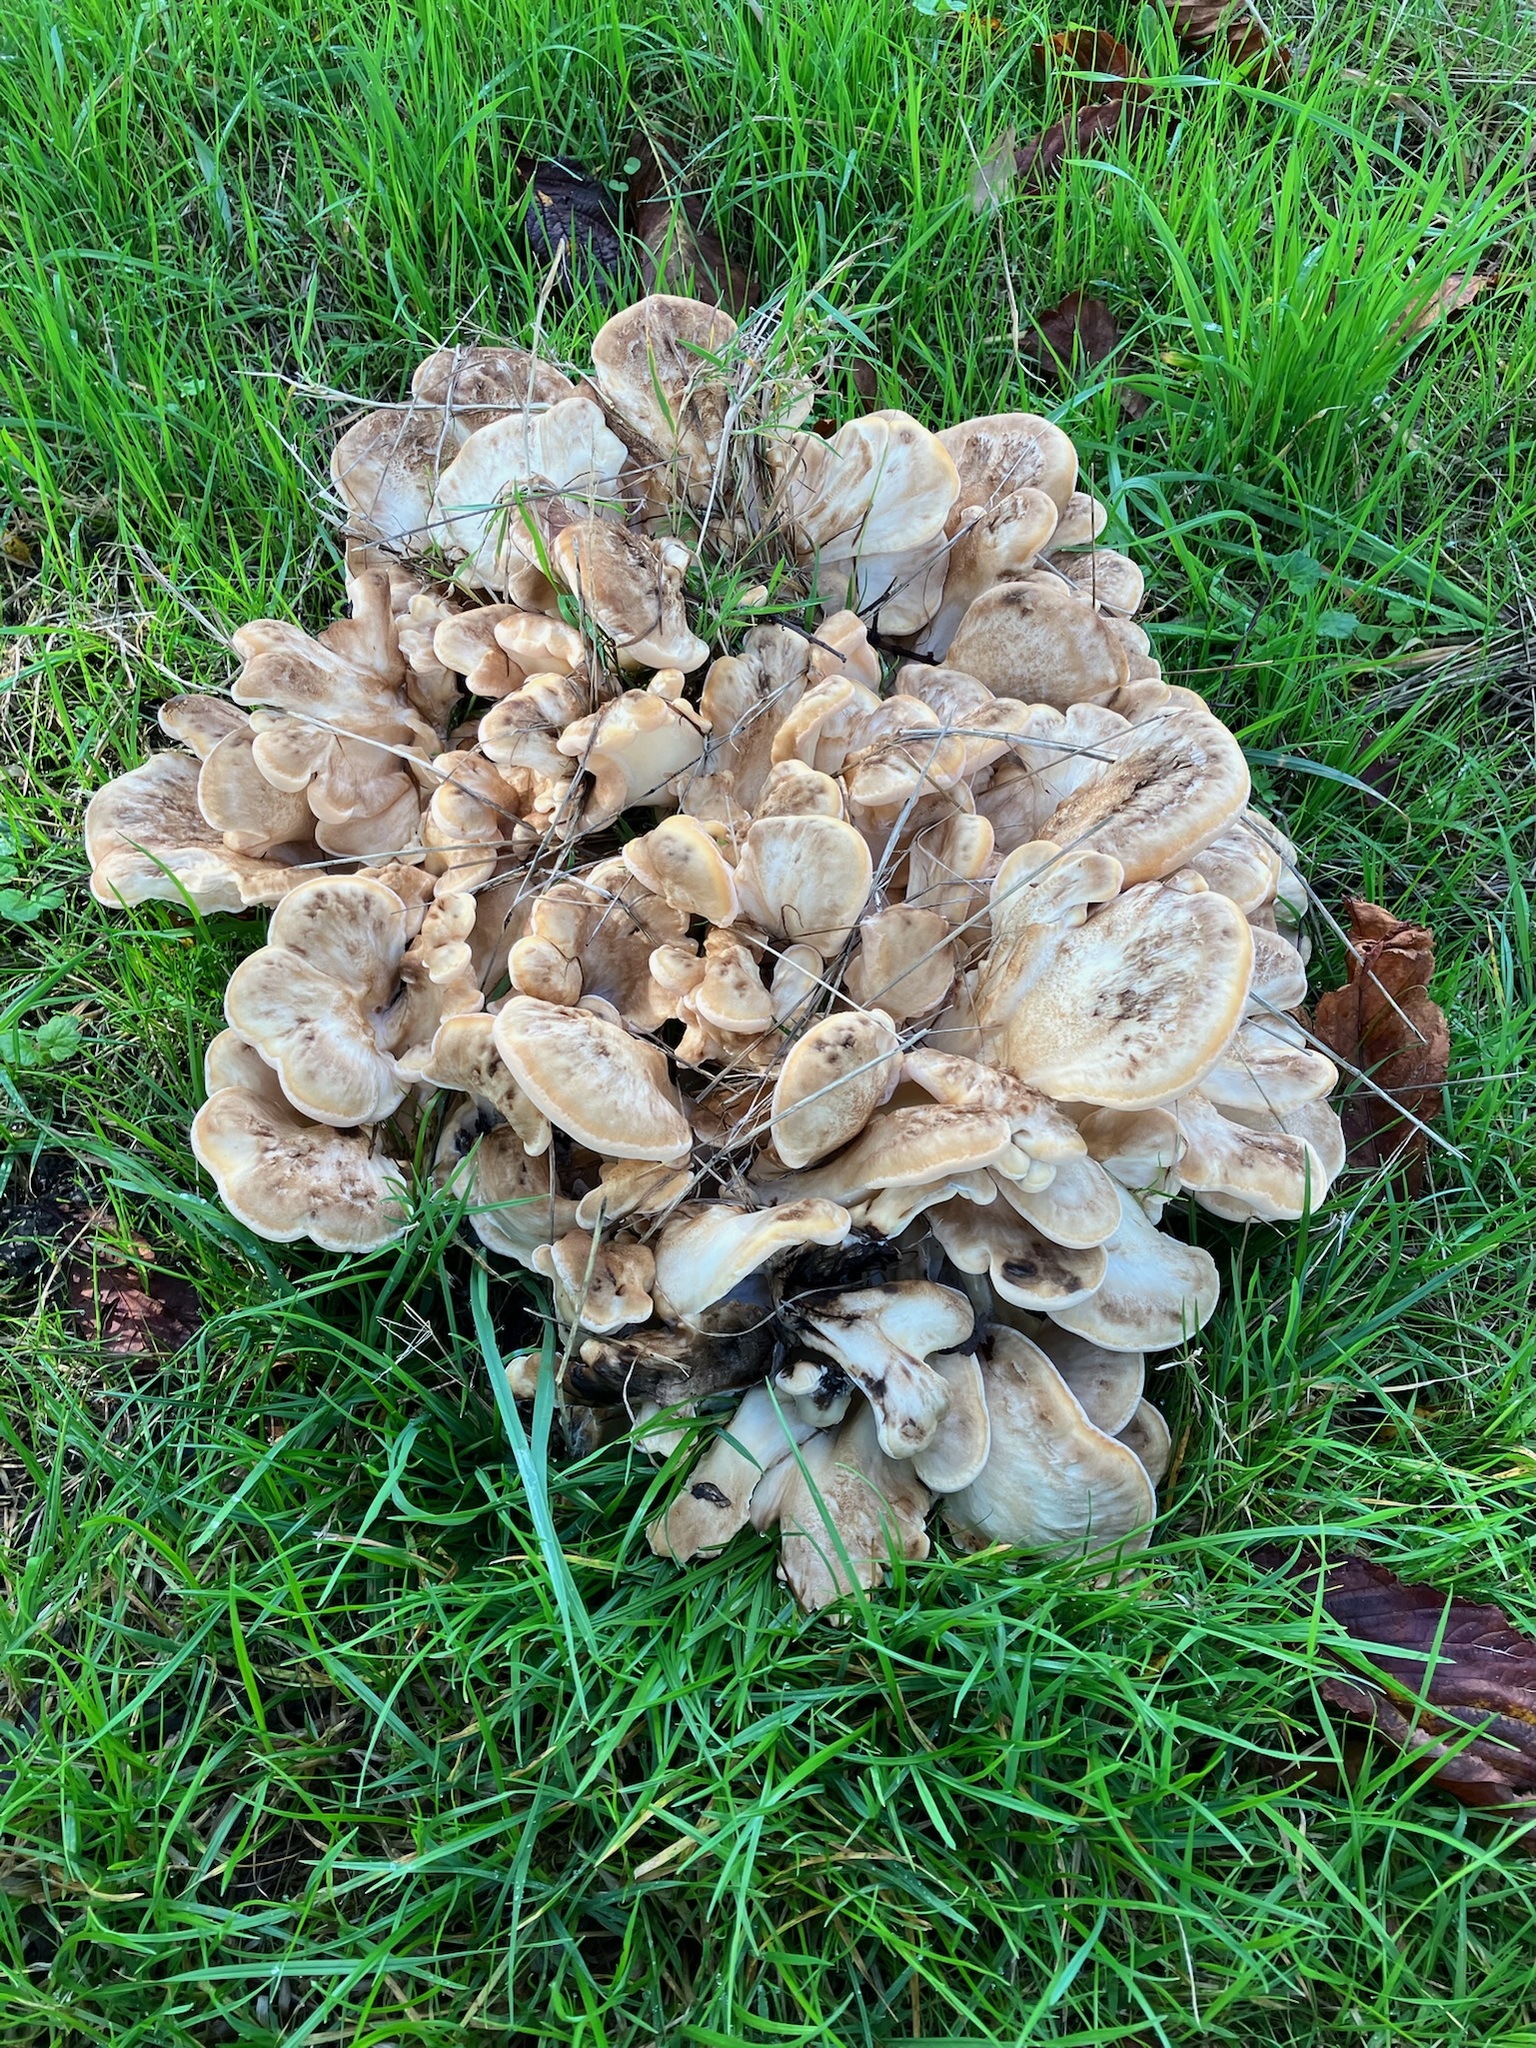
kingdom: Fungi
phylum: Basidiomycota
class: Agaricomycetes
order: Polyporales
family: Grifolaceae
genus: Grifola
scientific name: Grifola frondosa
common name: Hen of the woods
